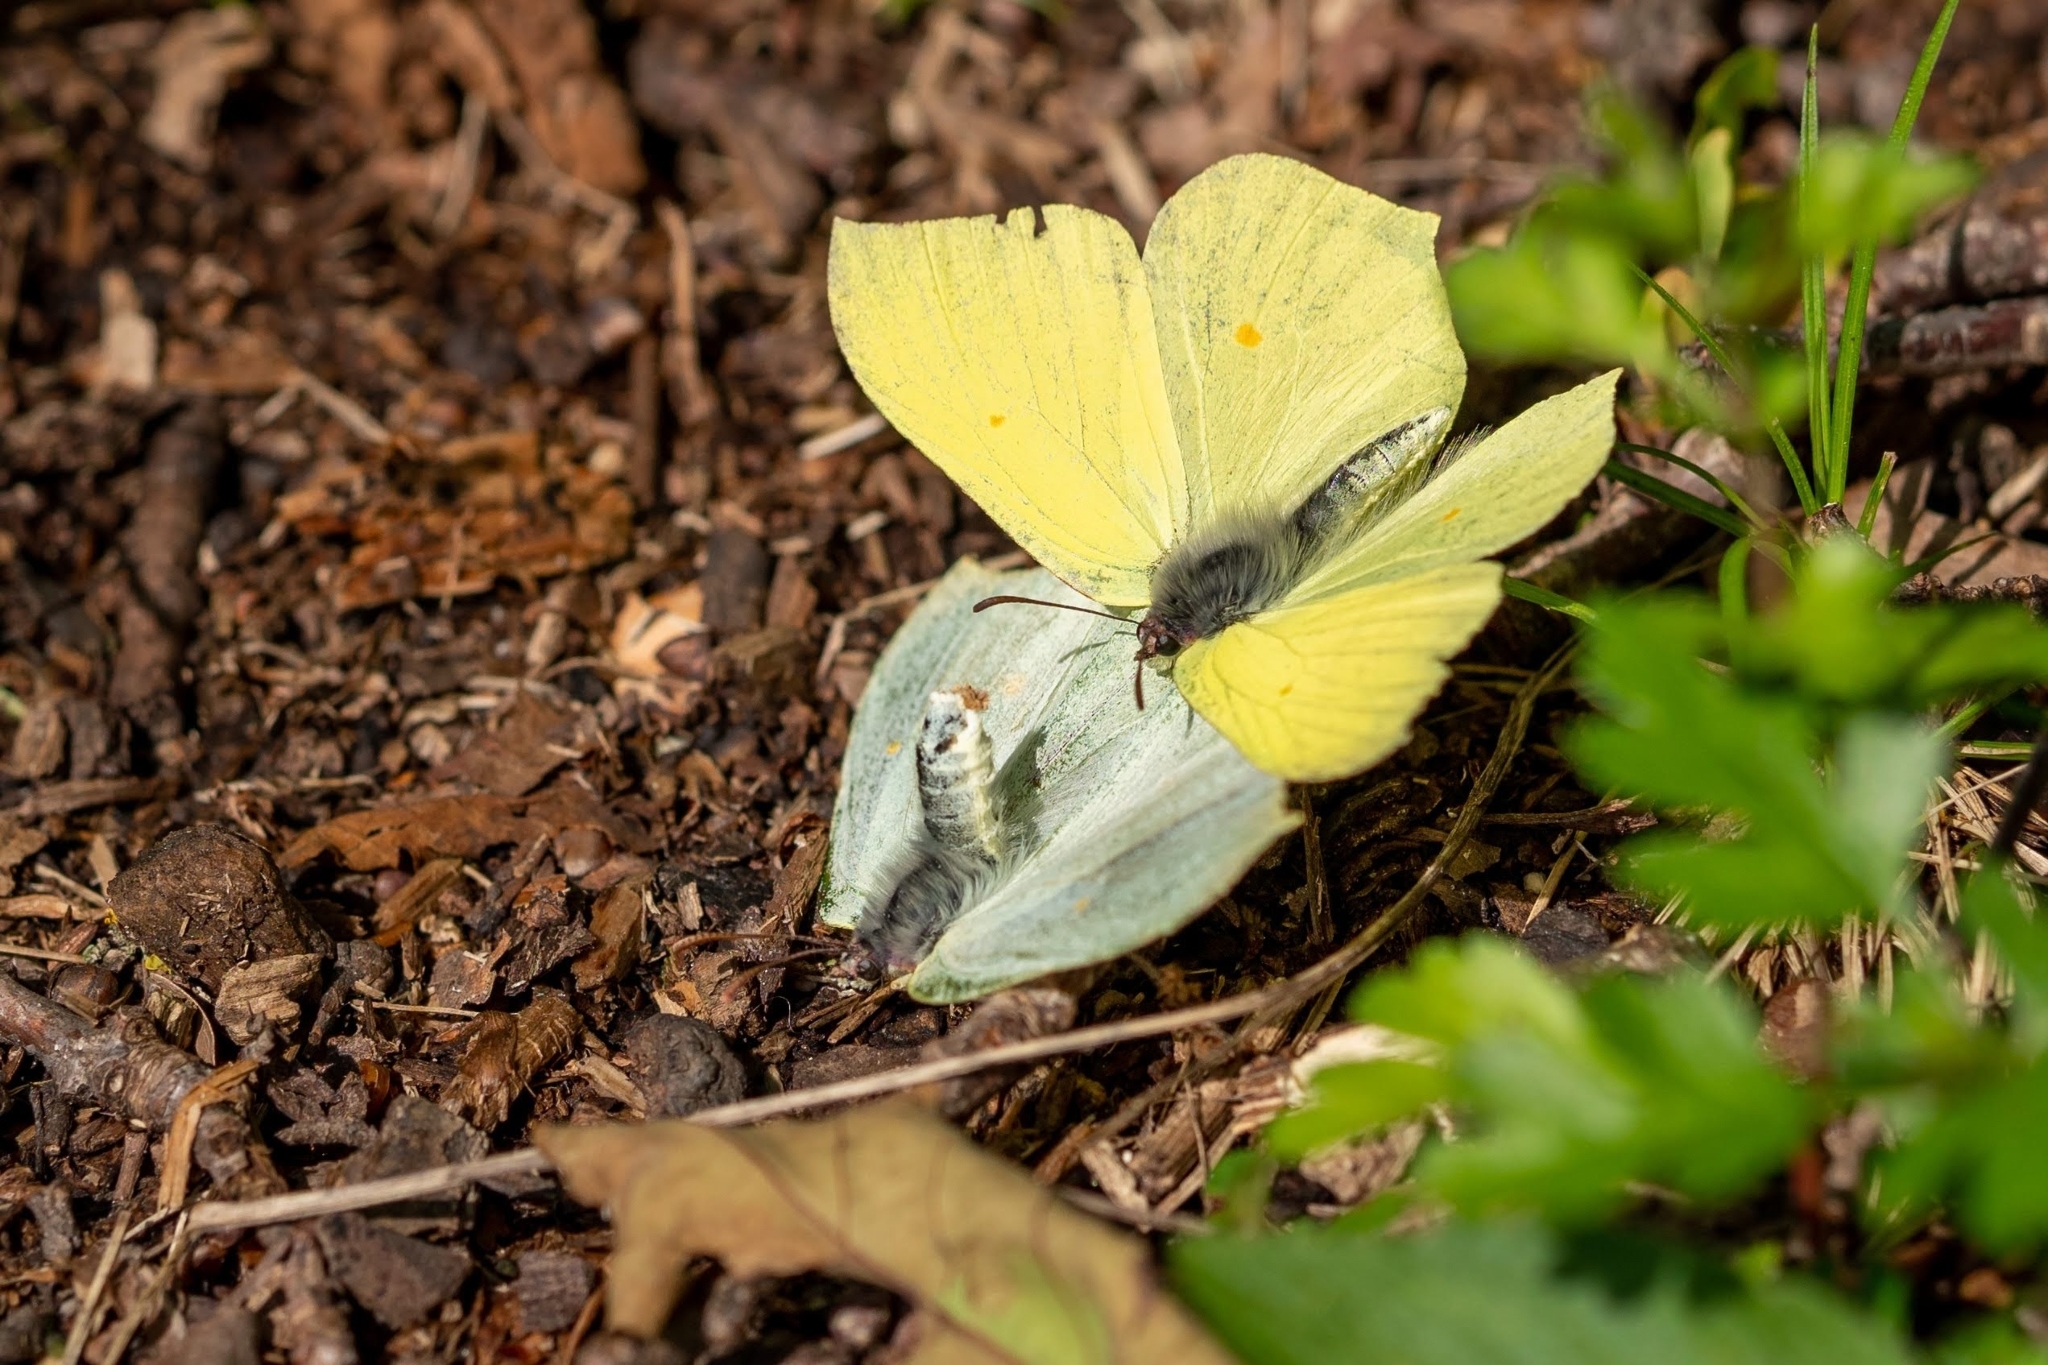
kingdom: Animalia
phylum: Arthropoda
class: Insecta
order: Lepidoptera
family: Pieridae
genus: Gonepteryx
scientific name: Gonepteryx rhamni
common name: Brimstone
